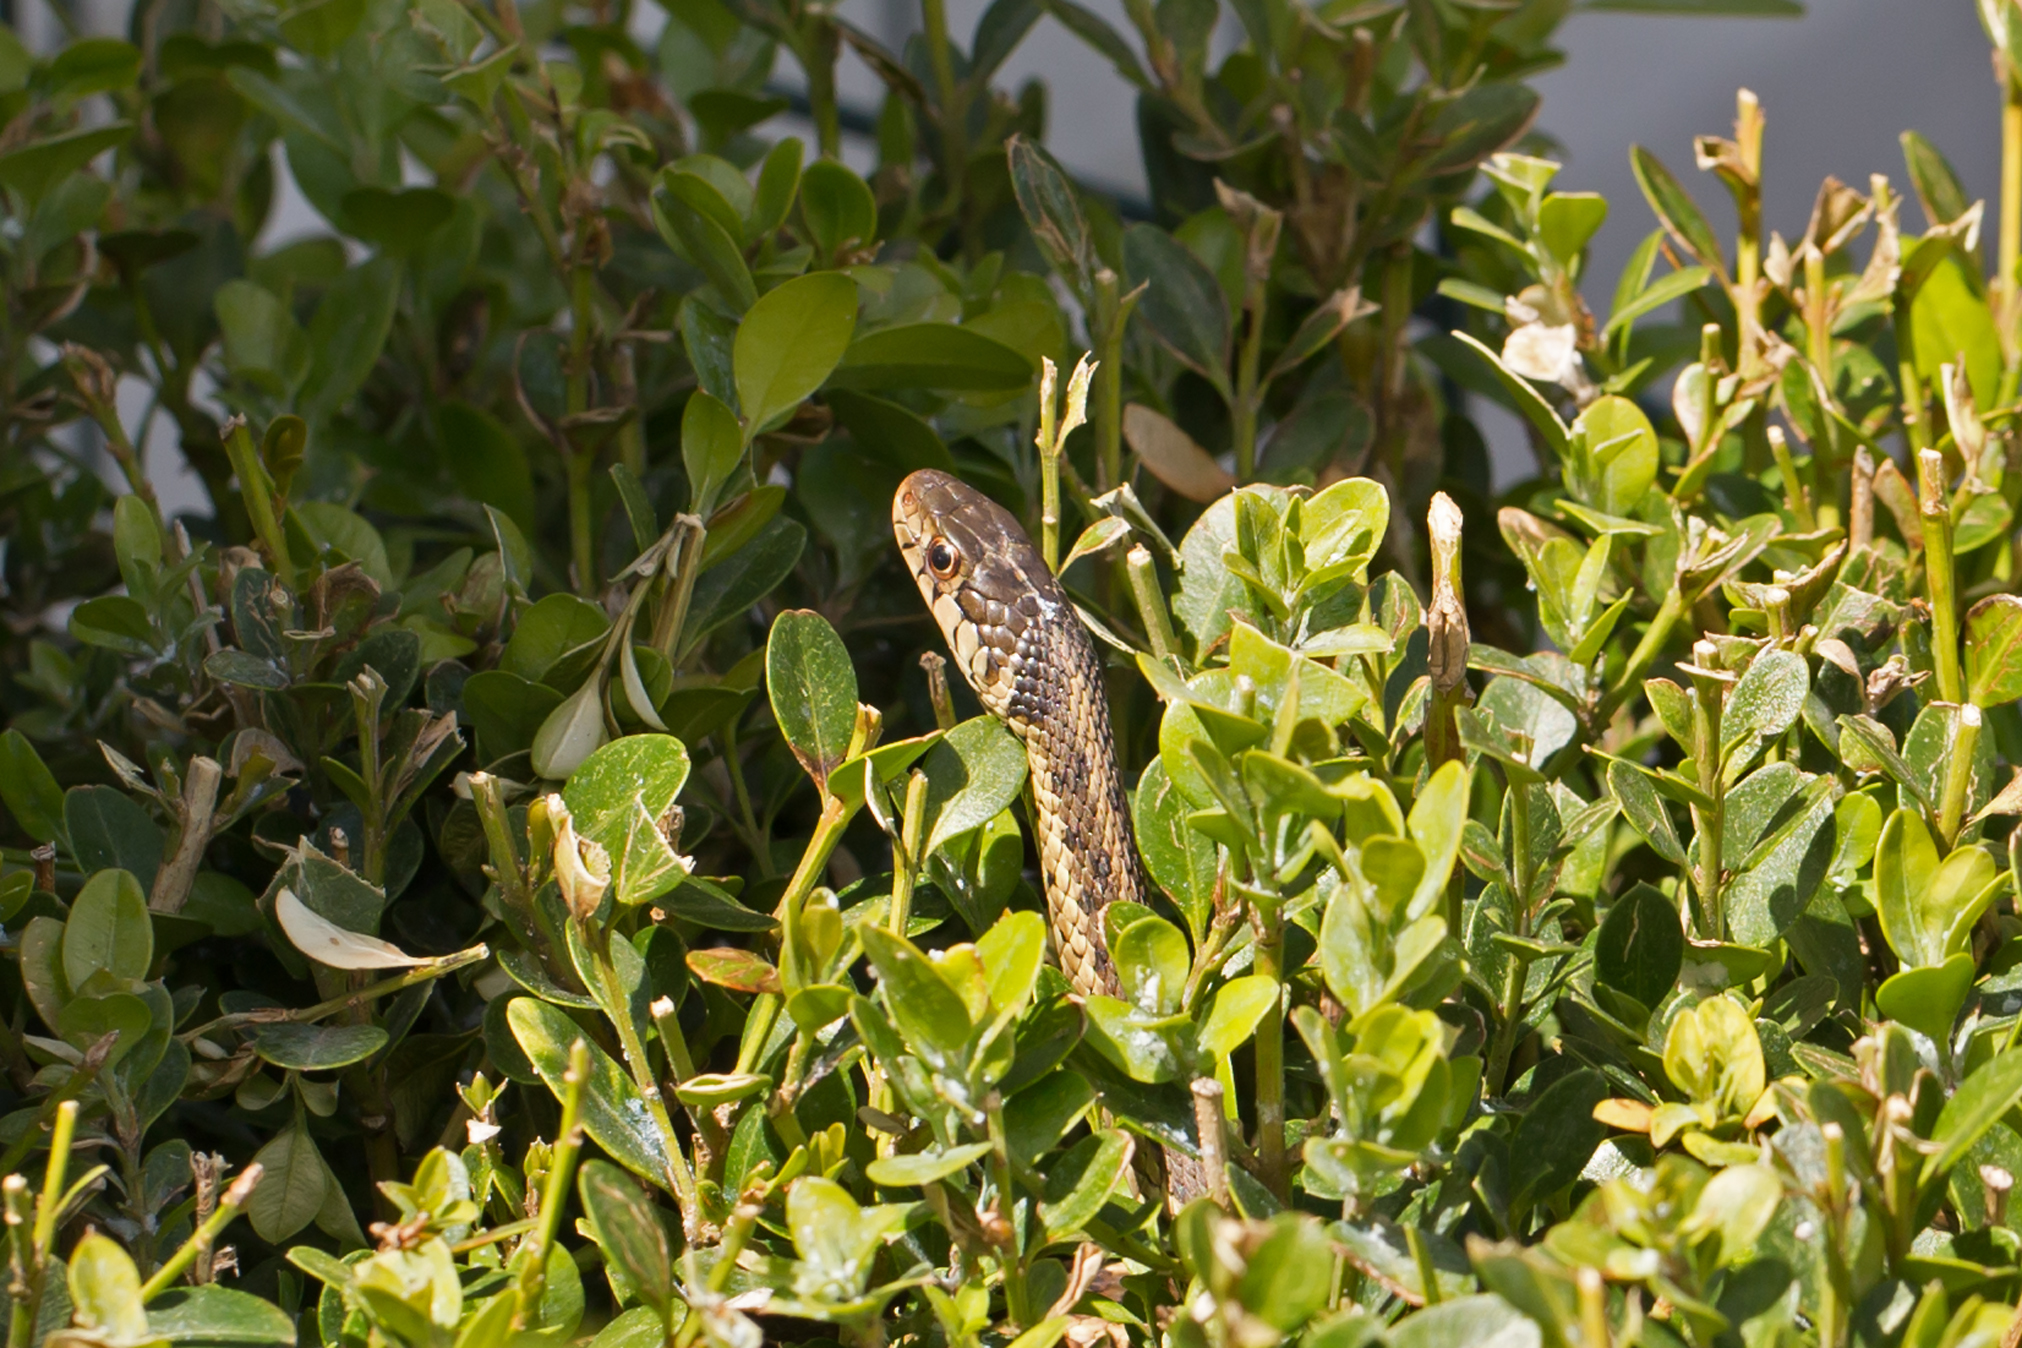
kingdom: Animalia
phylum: Chordata
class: Squamata
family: Colubridae
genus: Thamnophis
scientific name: Thamnophis sirtalis
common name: Common garter snake
